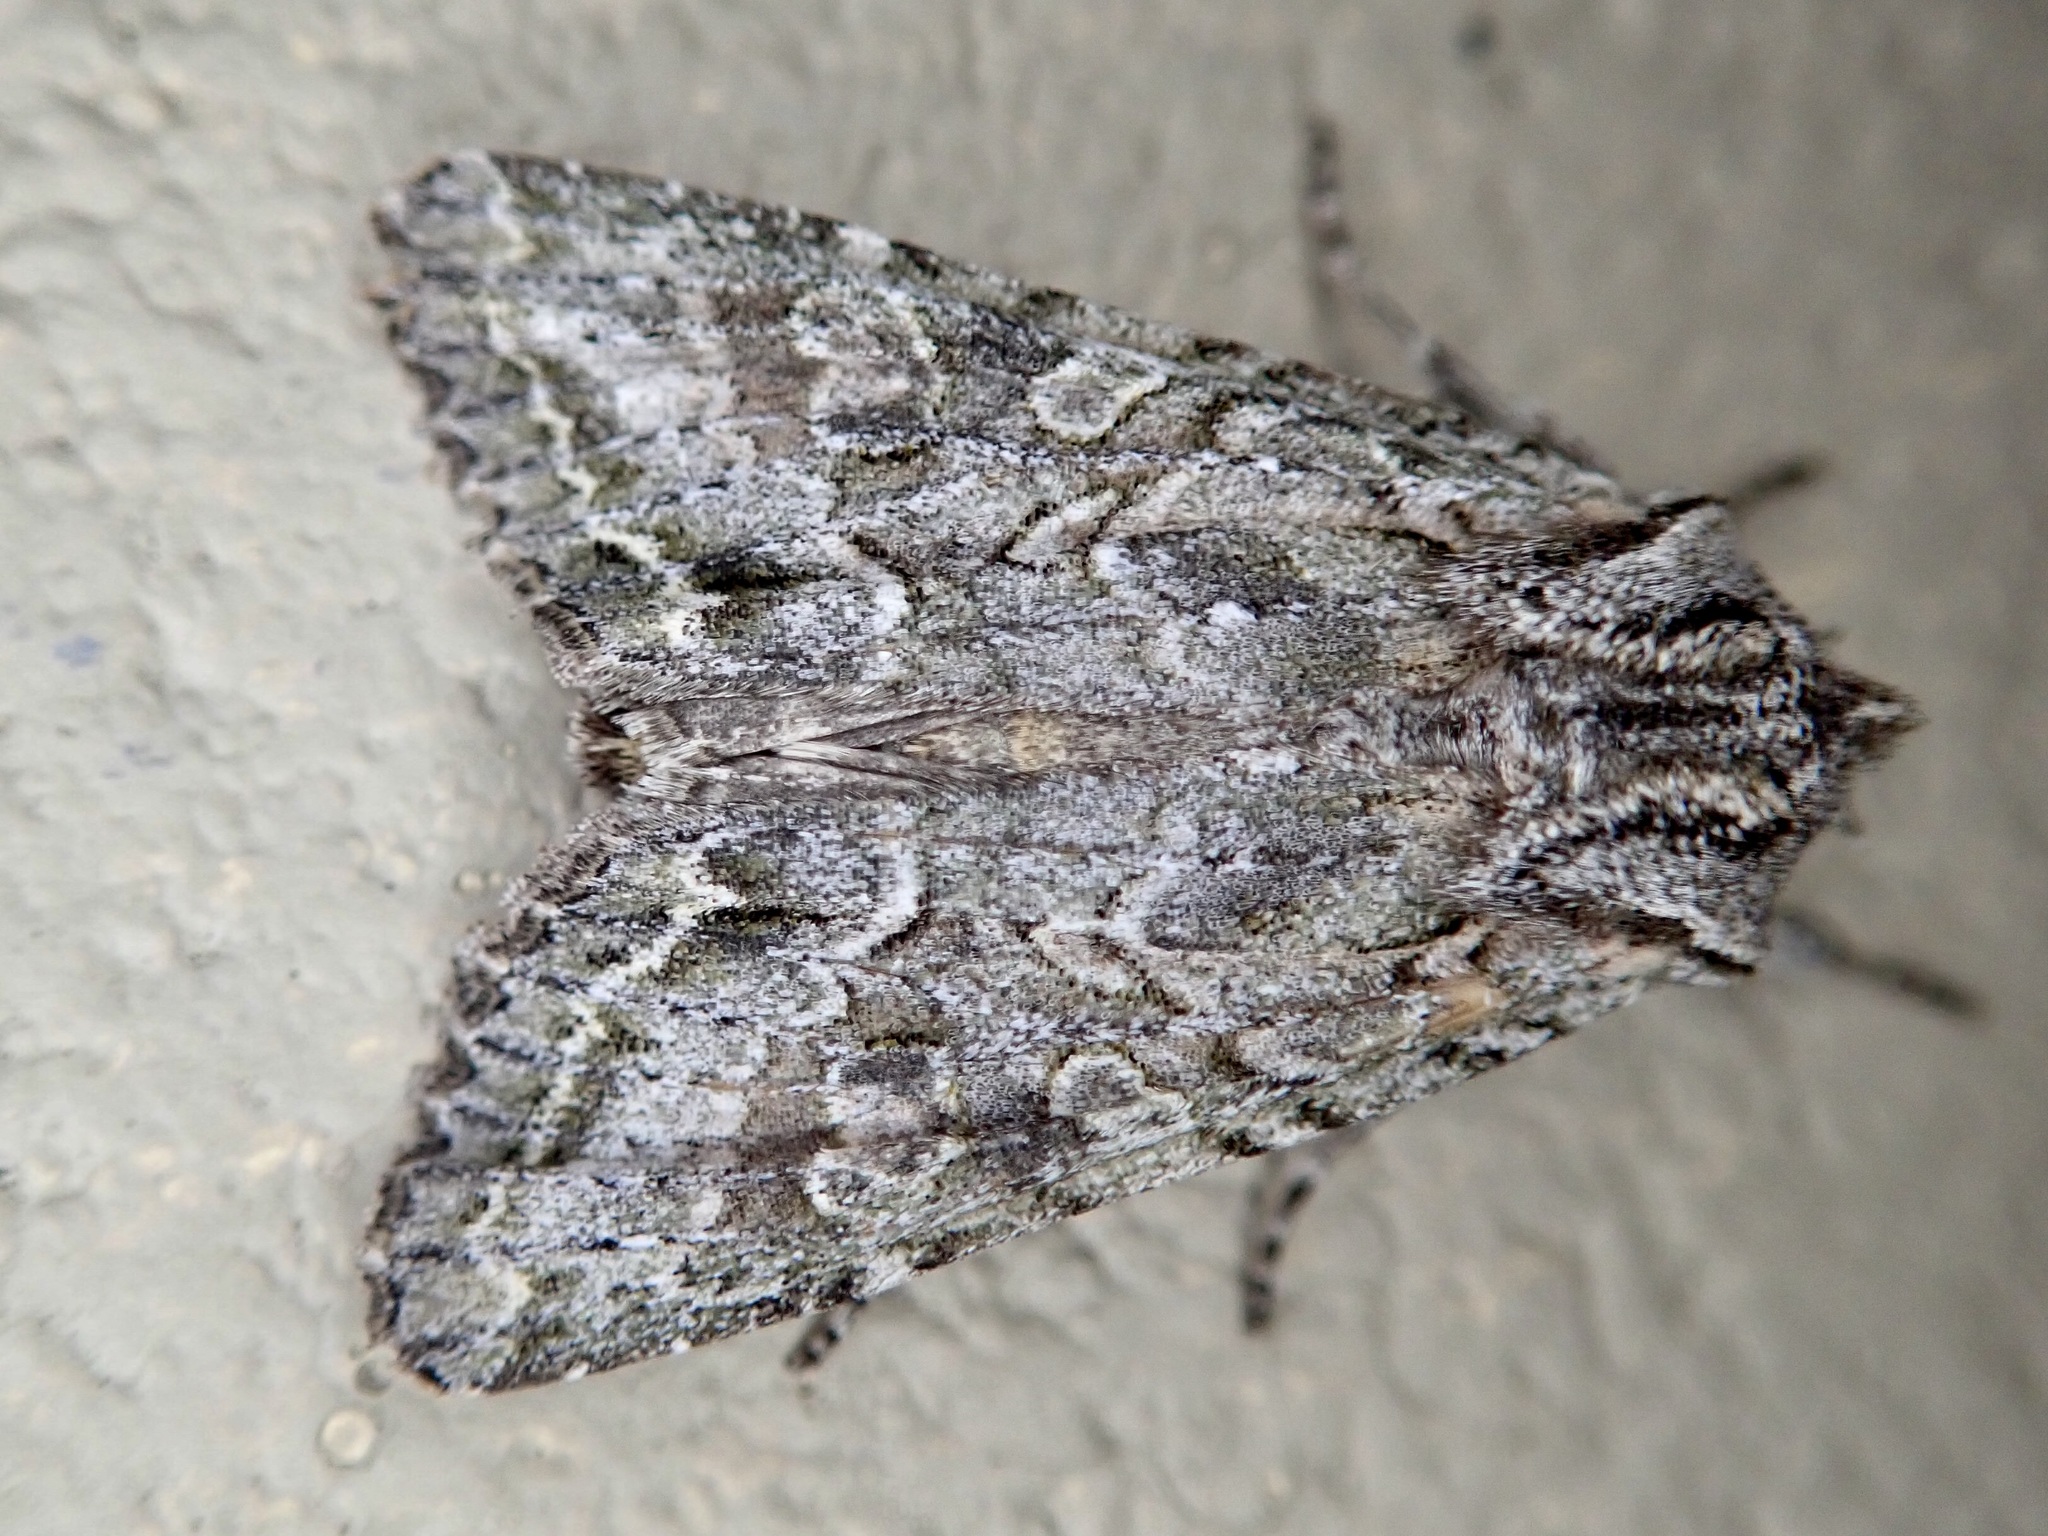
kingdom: Animalia
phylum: Arthropoda
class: Insecta
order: Lepidoptera
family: Noctuidae
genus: Ichneutica
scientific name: Ichneutica mutans
